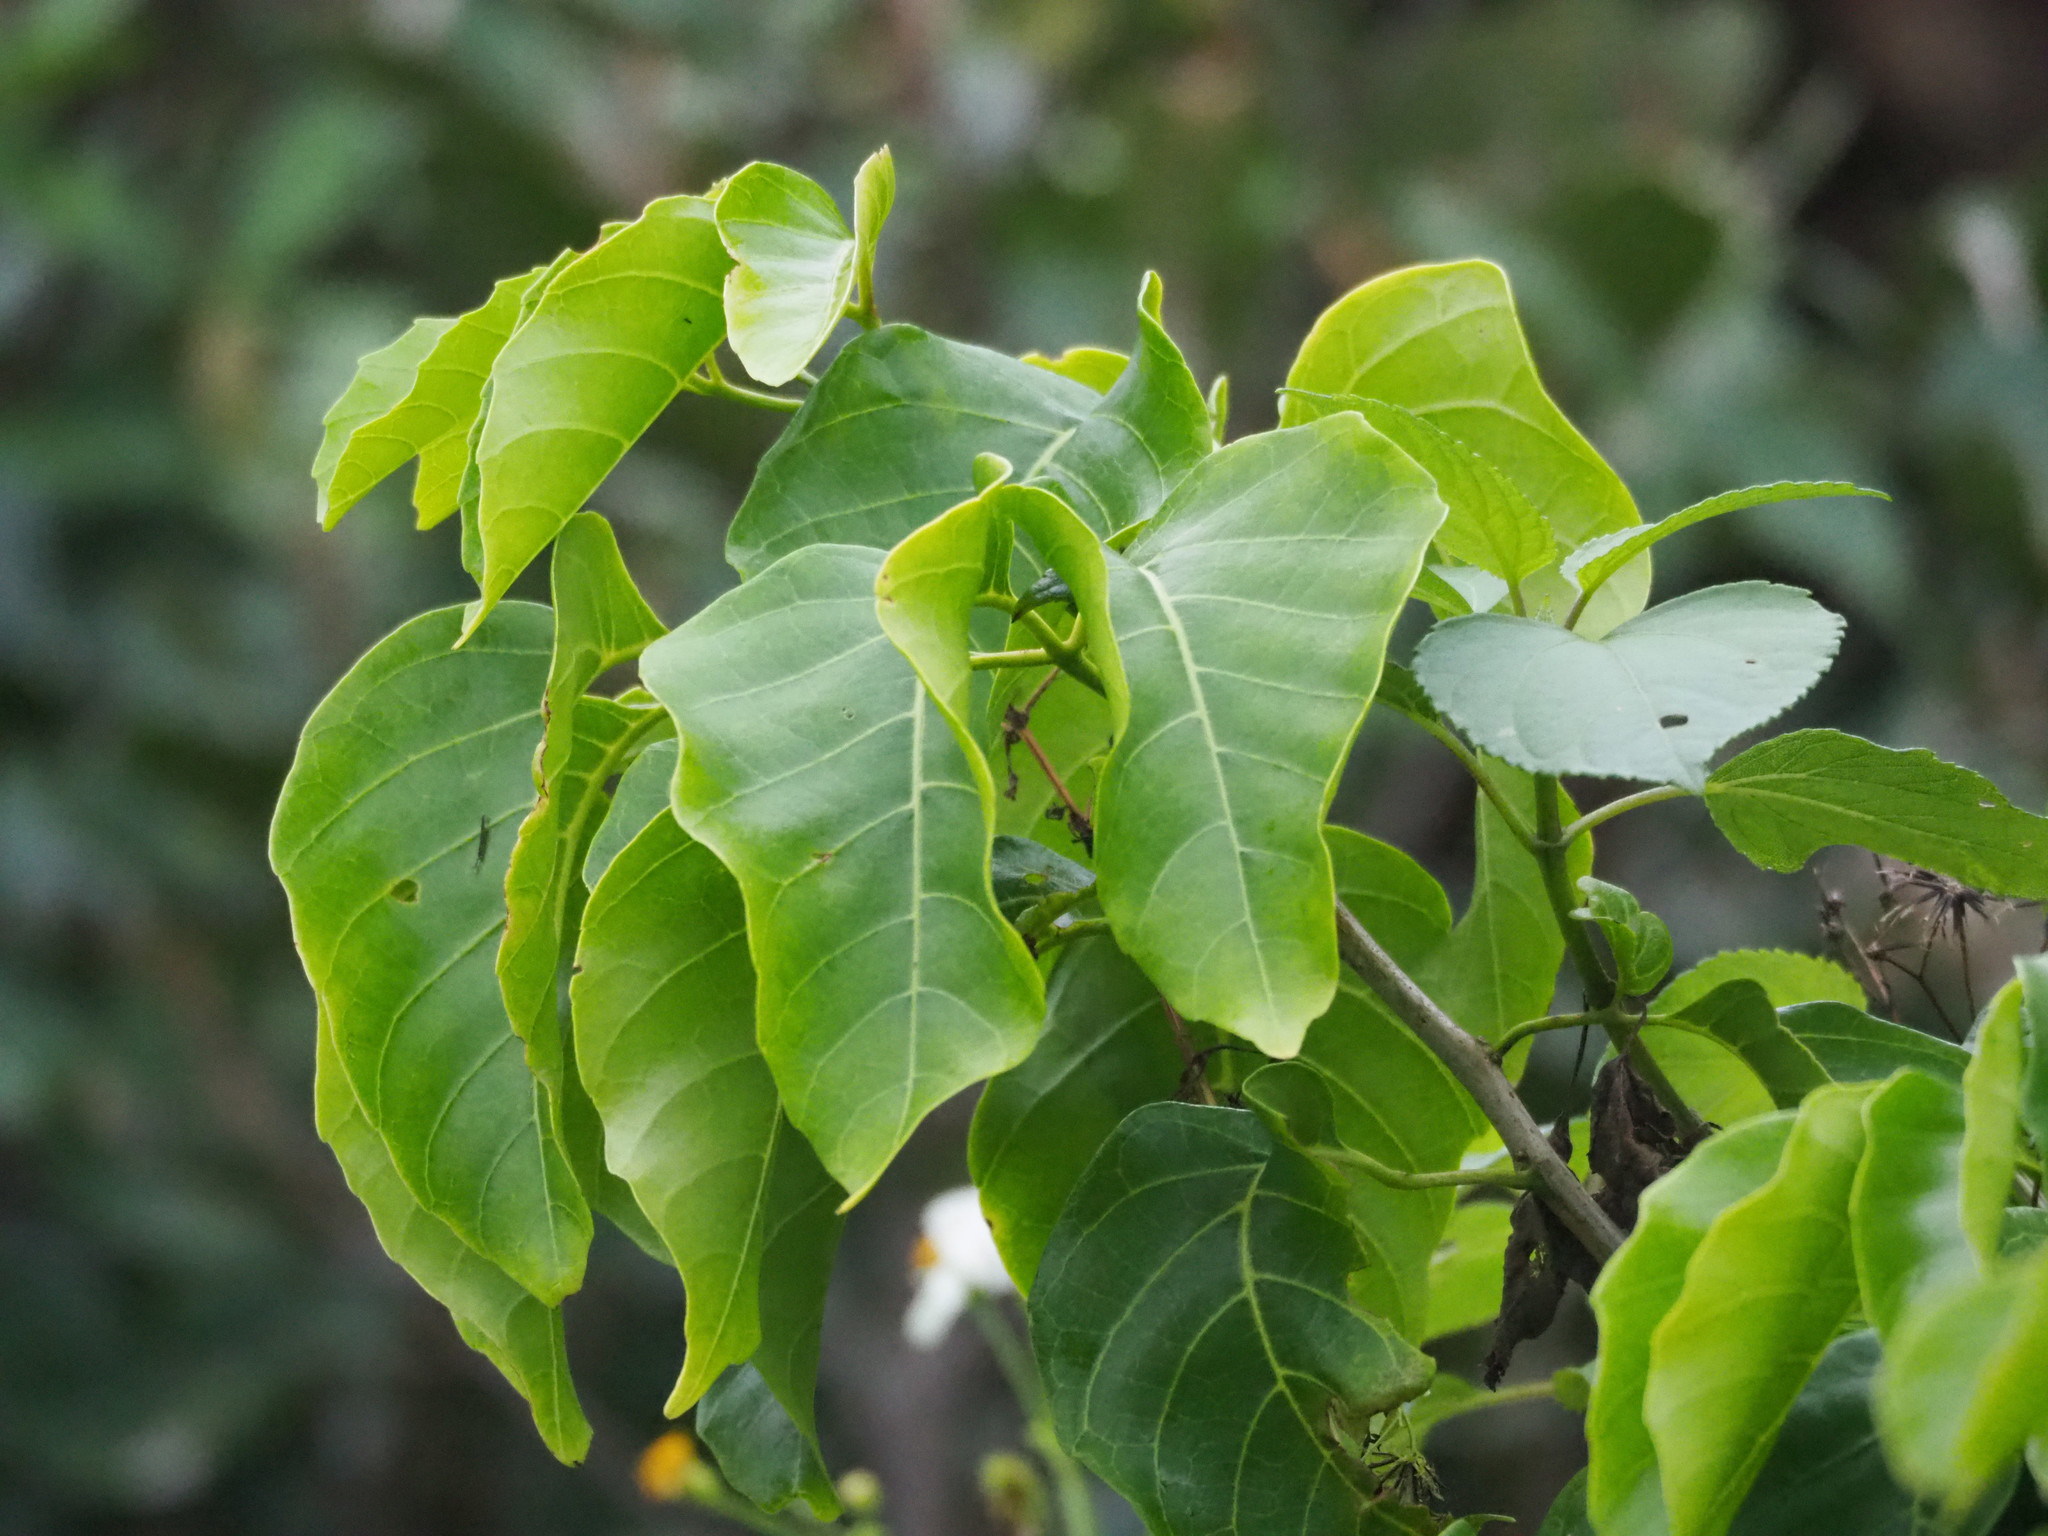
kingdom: Plantae
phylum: Tracheophyta
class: Magnoliopsida
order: Malvales
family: Malvaceae
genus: Thespesia
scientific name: Thespesia populnea
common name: Seaside mahoe
